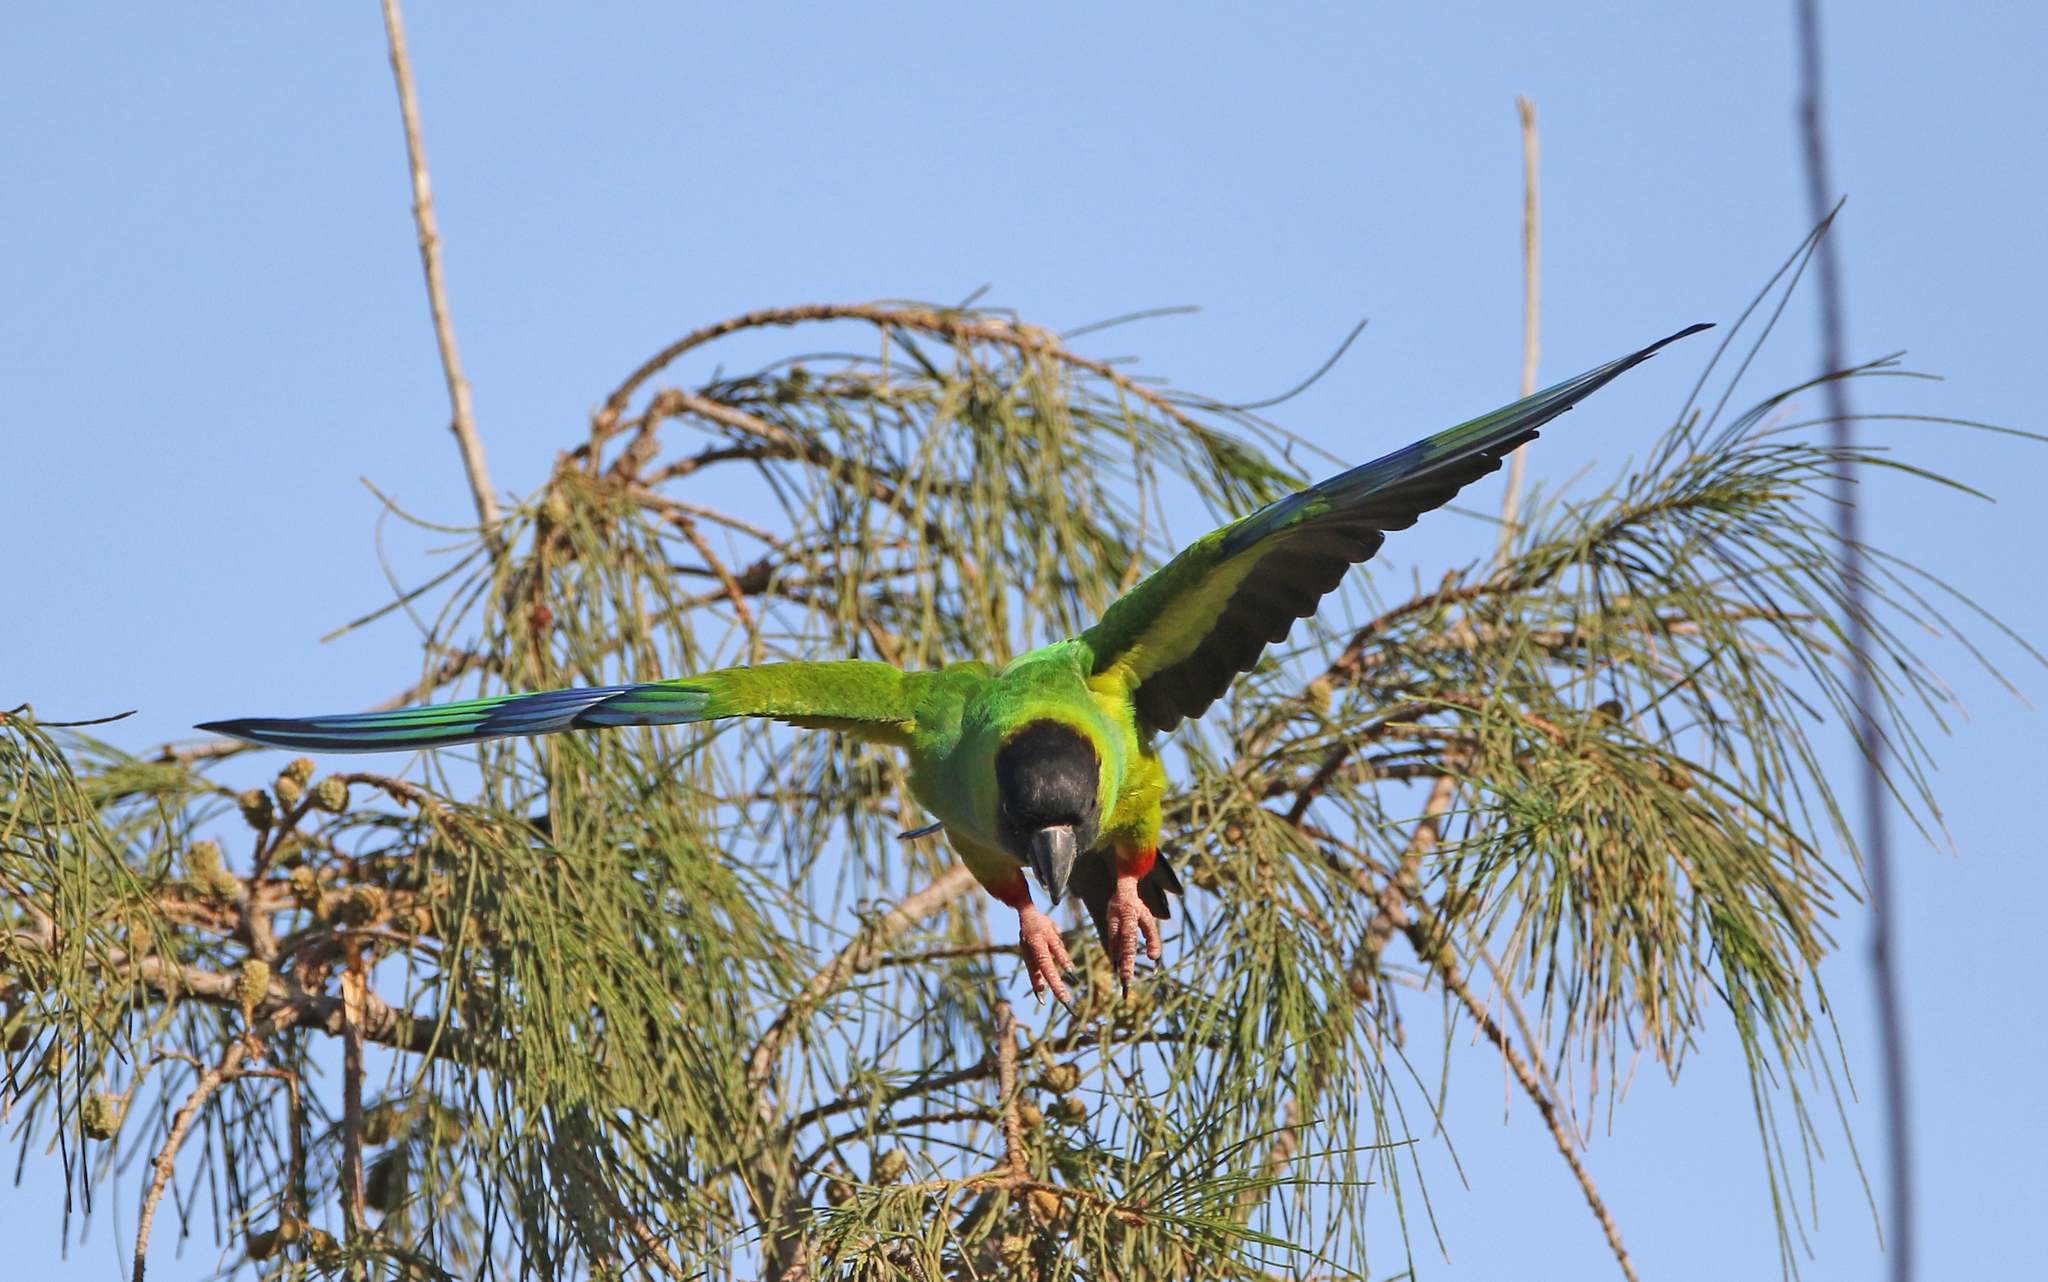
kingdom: Animalia
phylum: Chordata
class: Aves
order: Psittaciformes
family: Psittacidae
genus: Nandayus
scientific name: Nandayus nenday
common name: Nanday parakeet
